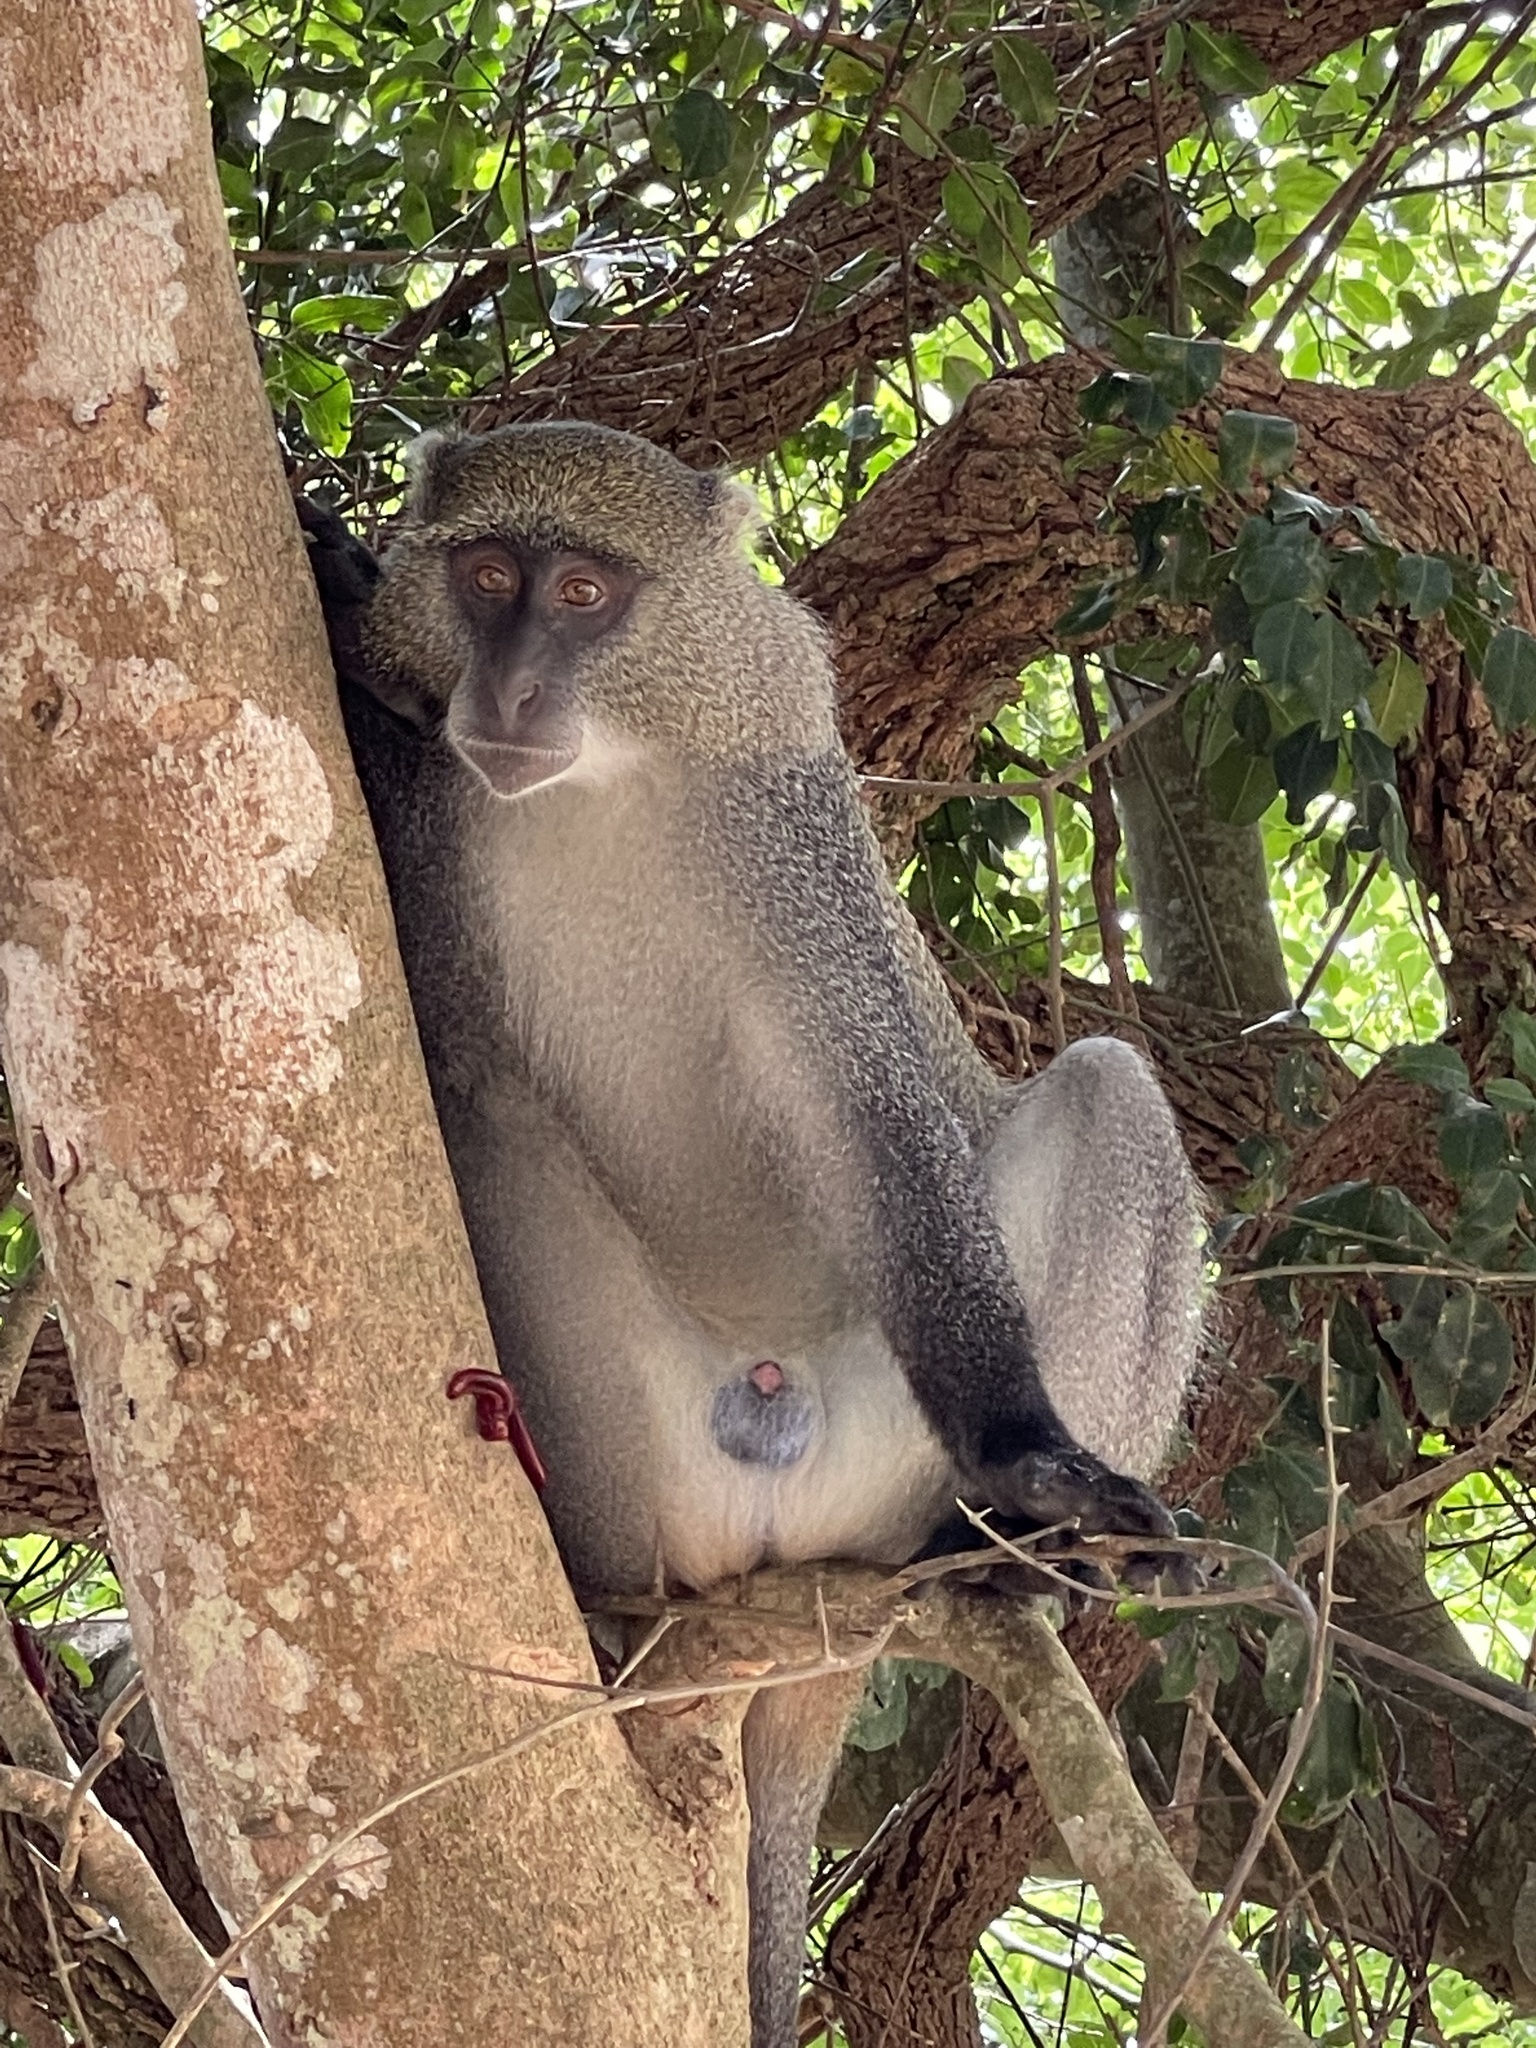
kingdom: Animalia
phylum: Chordata
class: Mammalia
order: Primates
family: Cercopithecidae
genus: Cercopithecus
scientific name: Cercopithecus mitis
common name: Blue monkey
